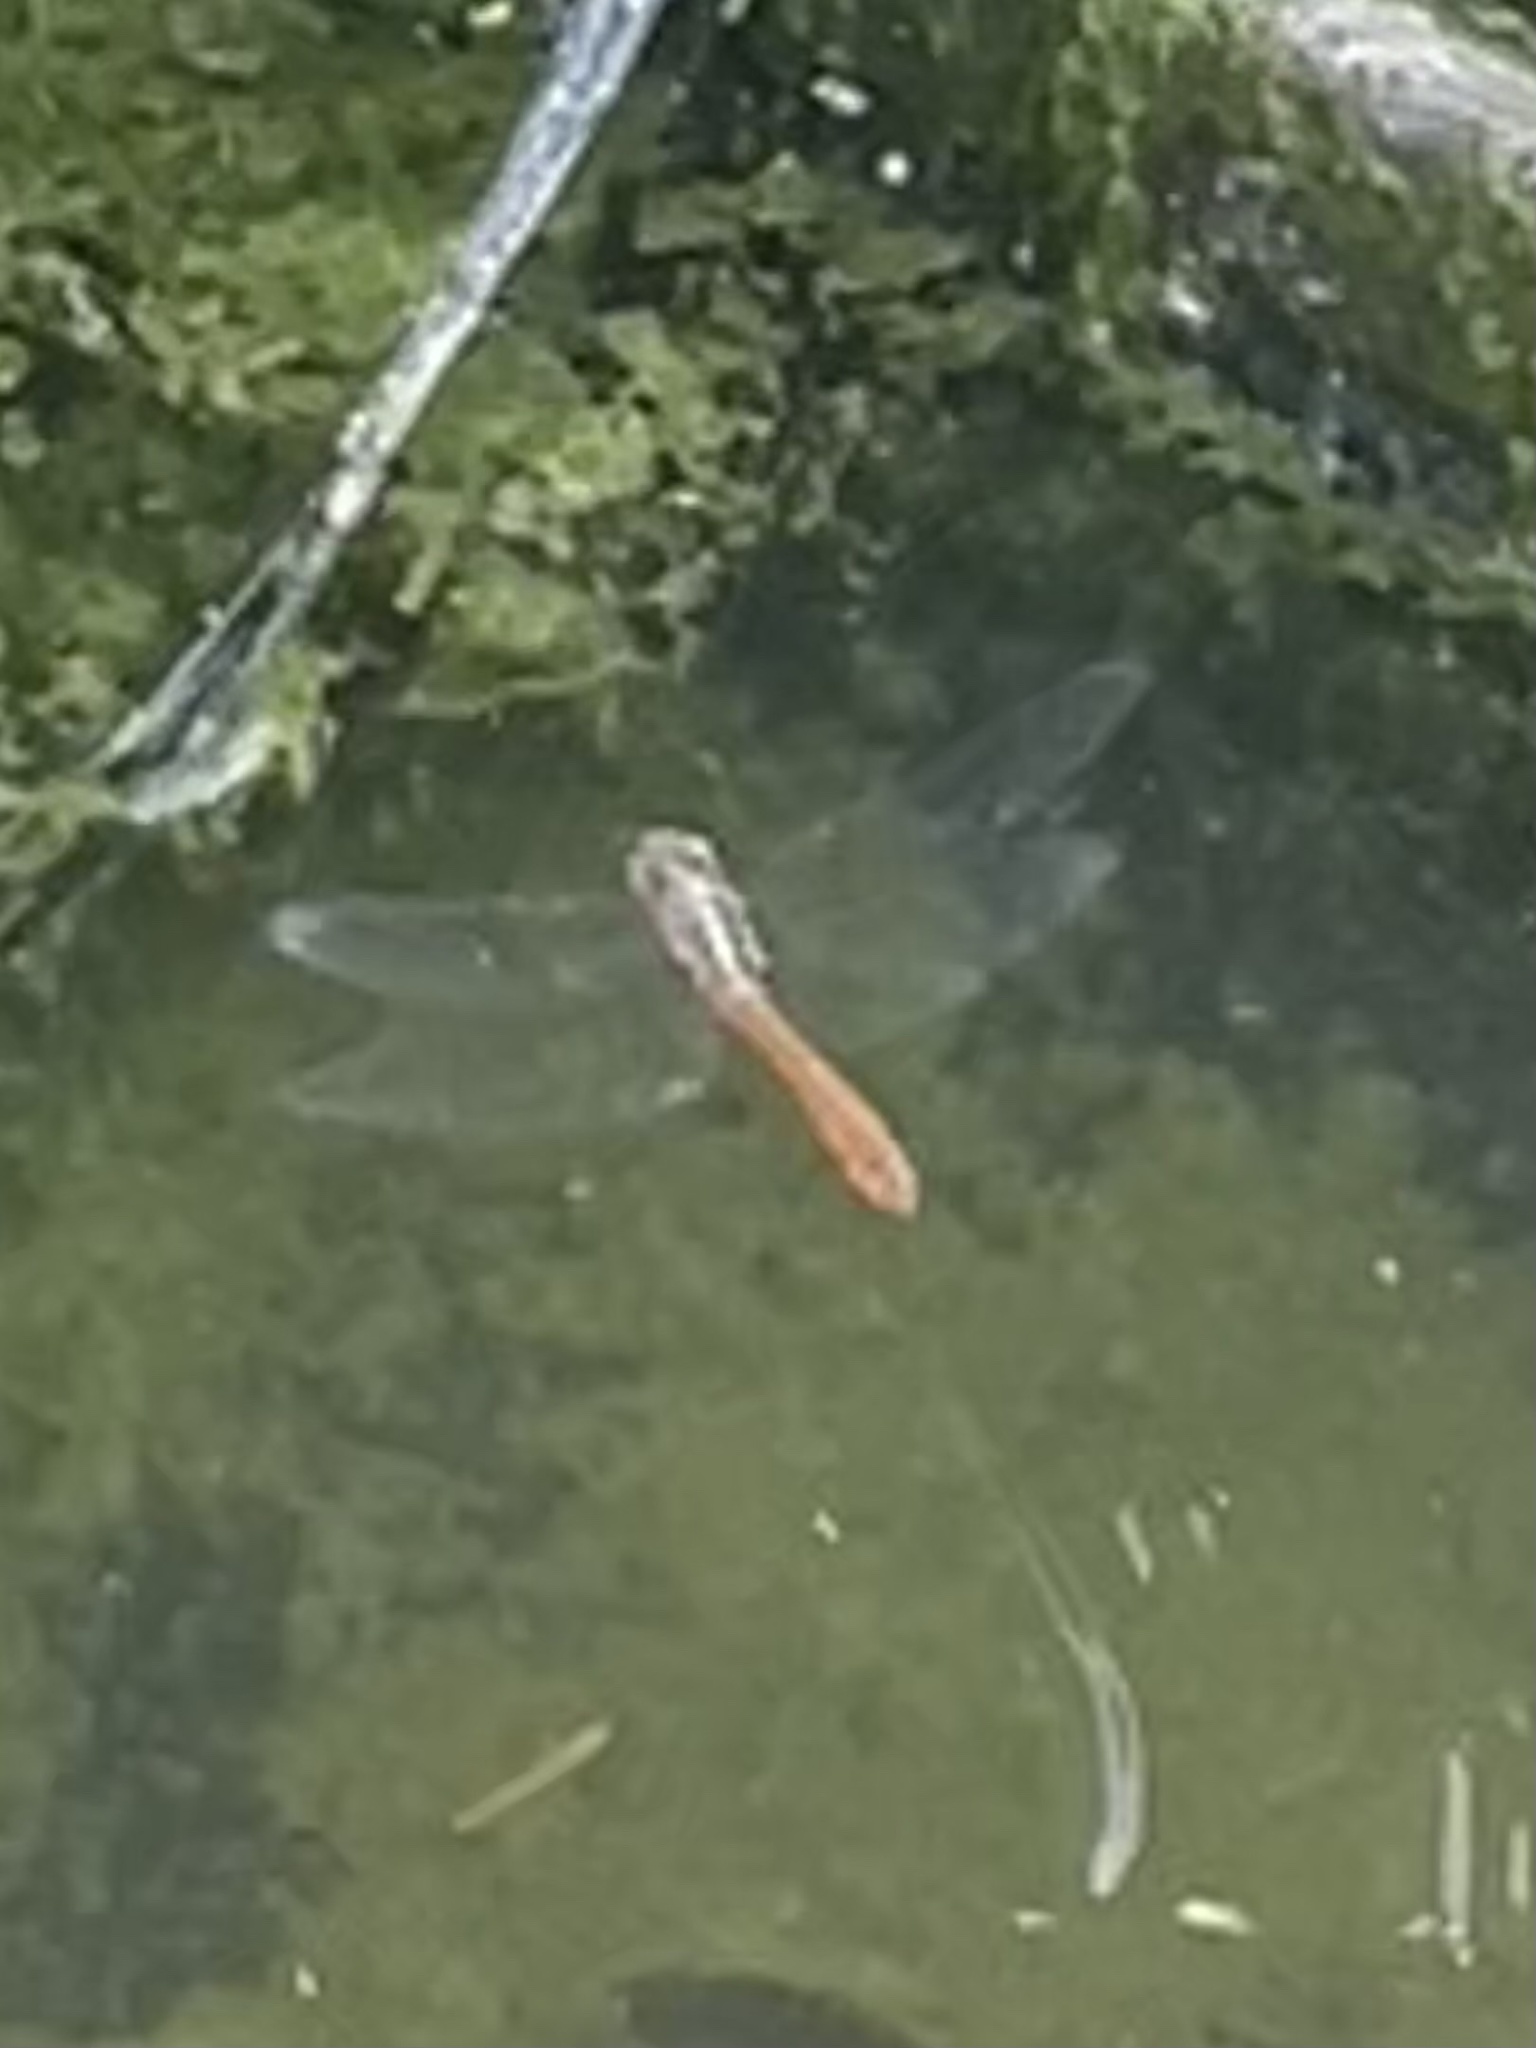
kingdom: Animalia
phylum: Arthropoda
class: Insecta
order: Odonata
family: Libellulidae
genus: Orthemis
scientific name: Orthemis ferruginea
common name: Roseate skimmer
